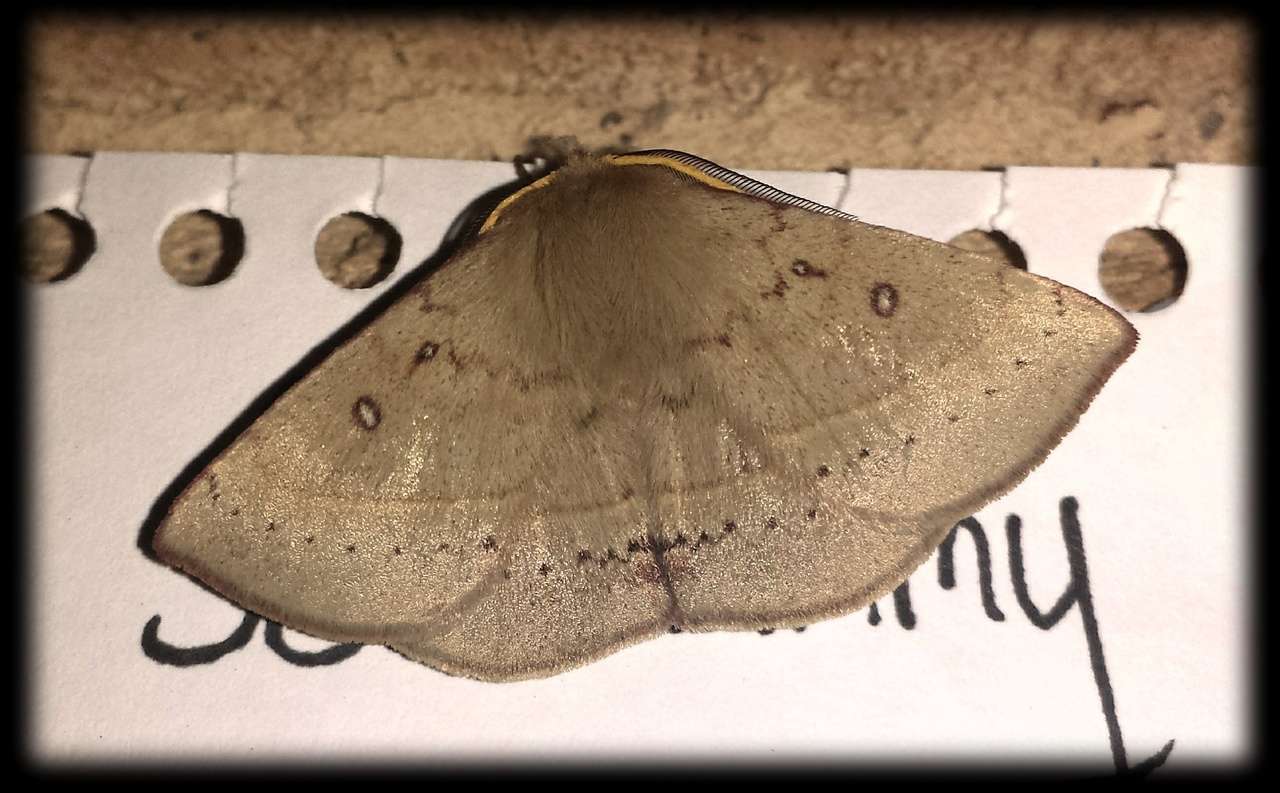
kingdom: Animalia
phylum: Arthropoda
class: Insecta
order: Lepidoptera
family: Anthelidae
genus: Anthela
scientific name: Anthela acuta
